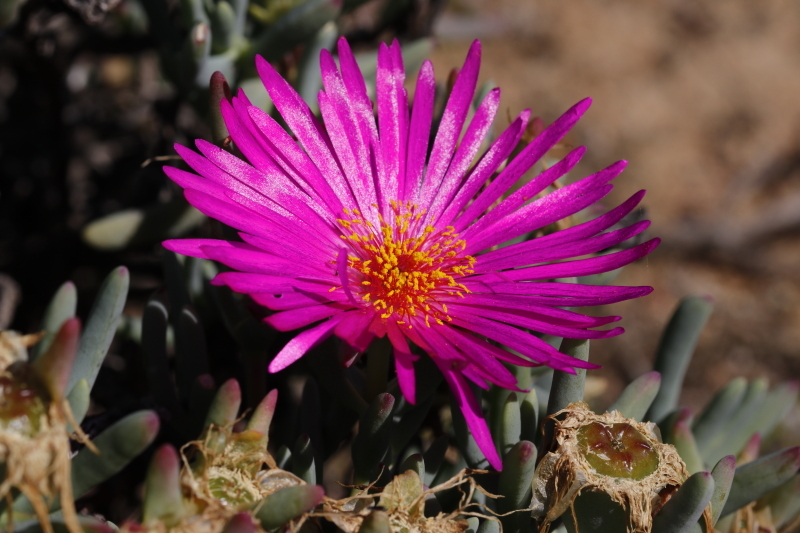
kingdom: Plantae
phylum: Tracheophyta
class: Magnoliopsida
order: Caryophyllales
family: Aizoaceae
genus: Lampranthus
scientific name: Lampranthus haworthii
